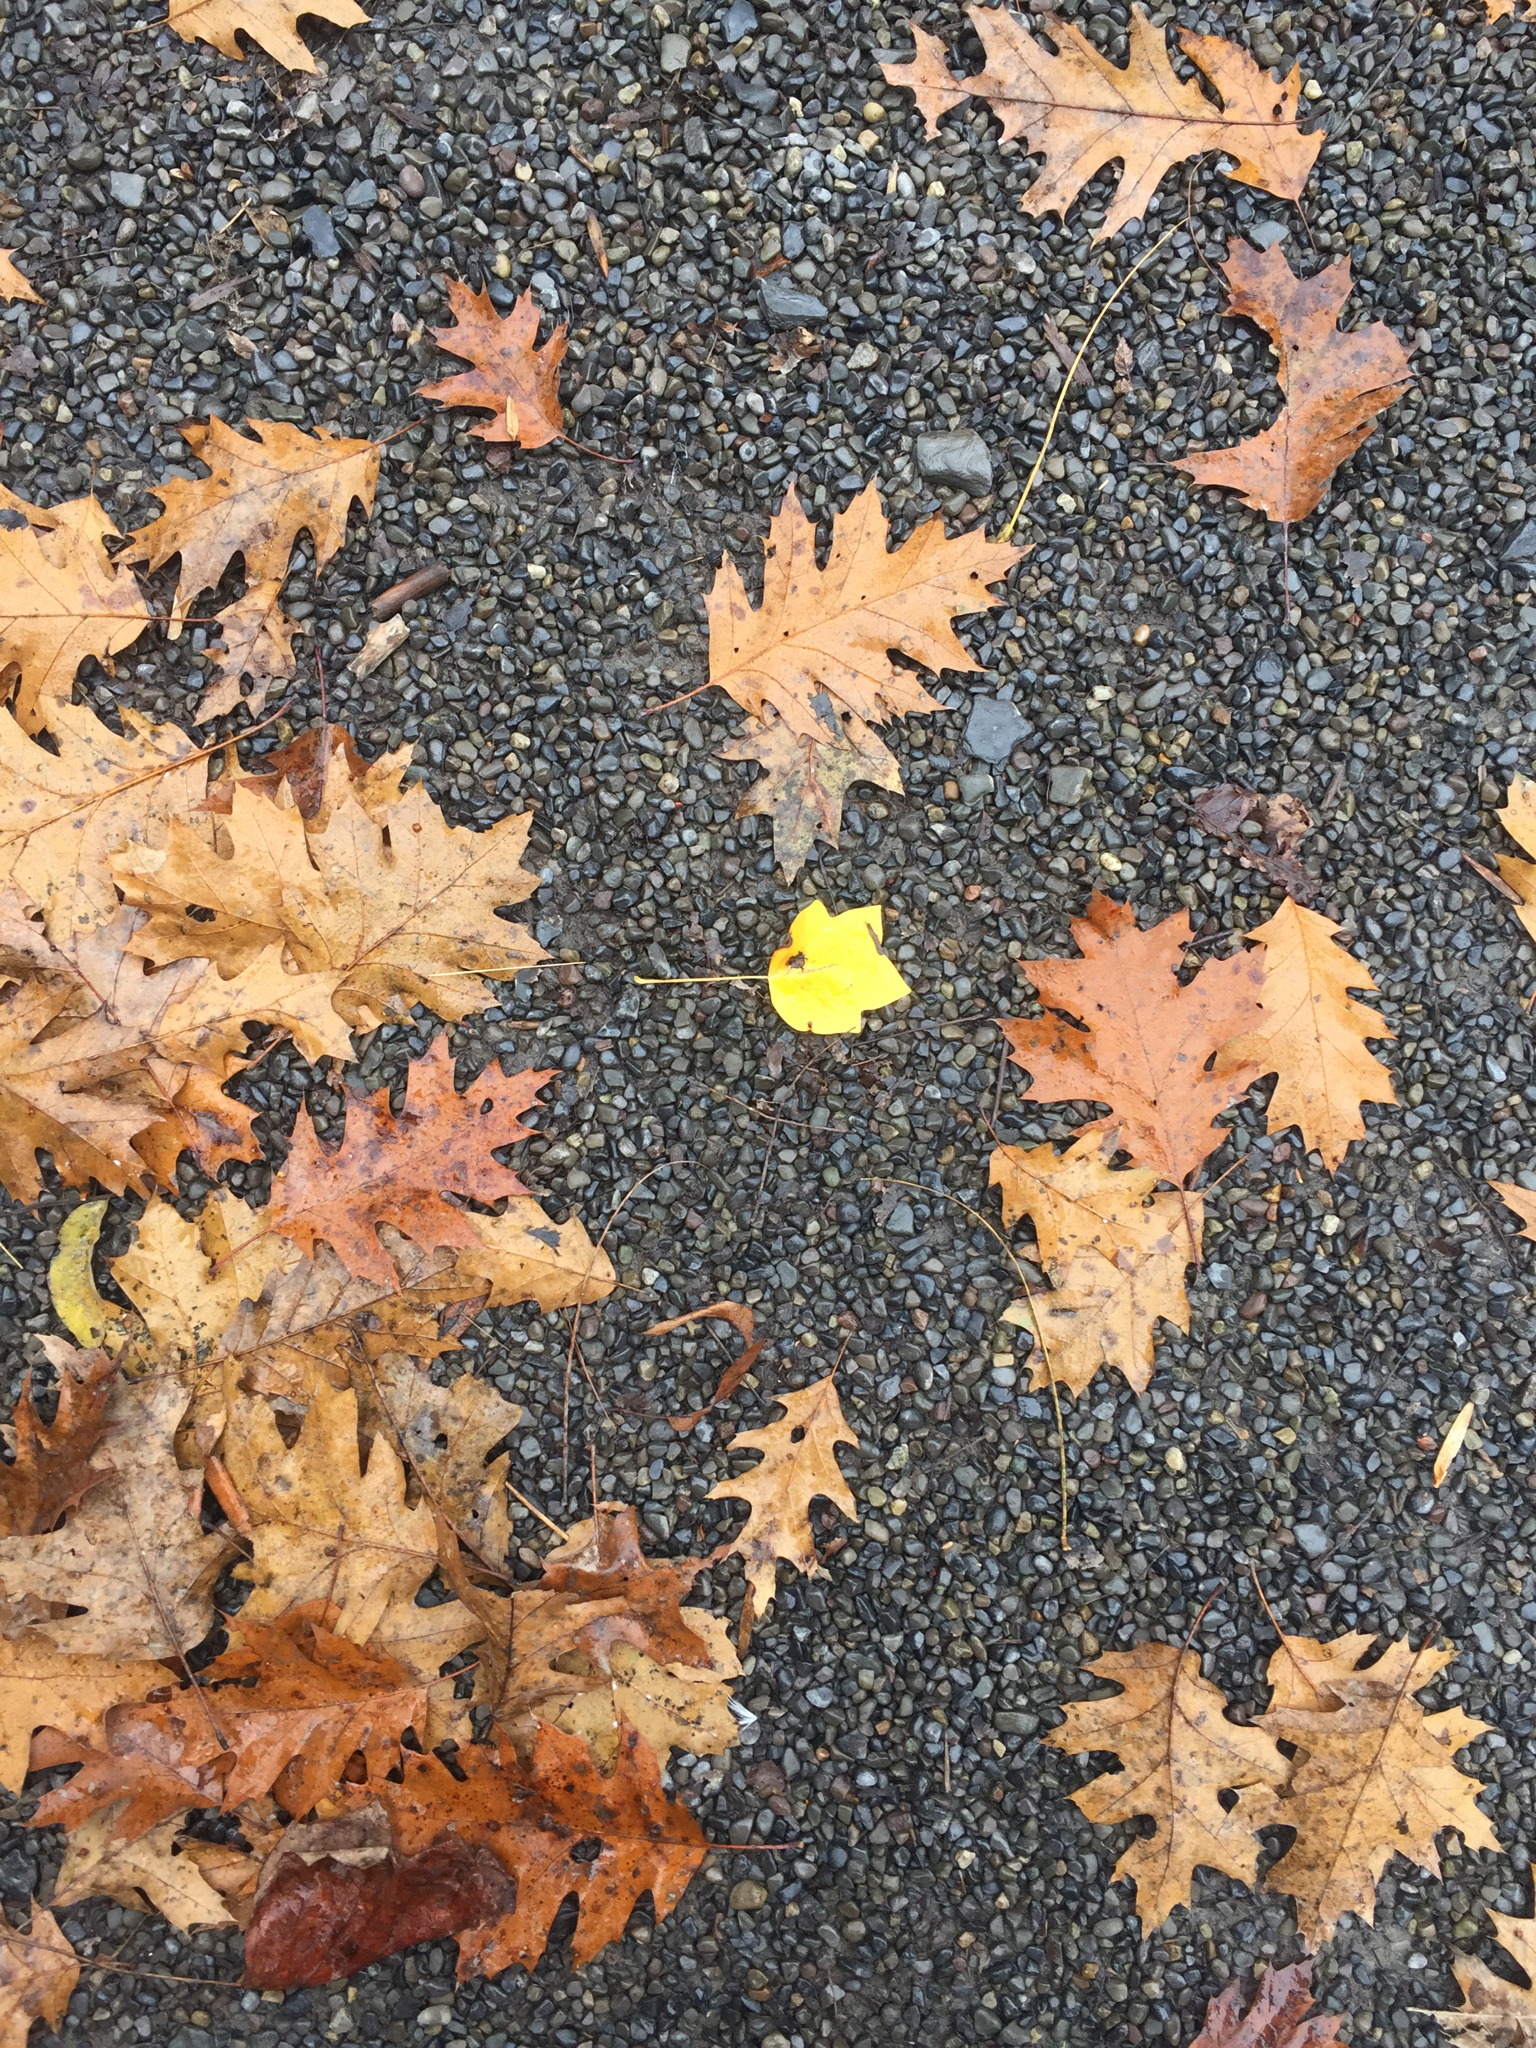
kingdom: Plantae
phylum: Tracheophyta
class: Magnoliopsida
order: Magnoliales
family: Magnoliaceae
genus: Liriodendron
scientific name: Liriodendron tulipifera
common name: Tulip tree
